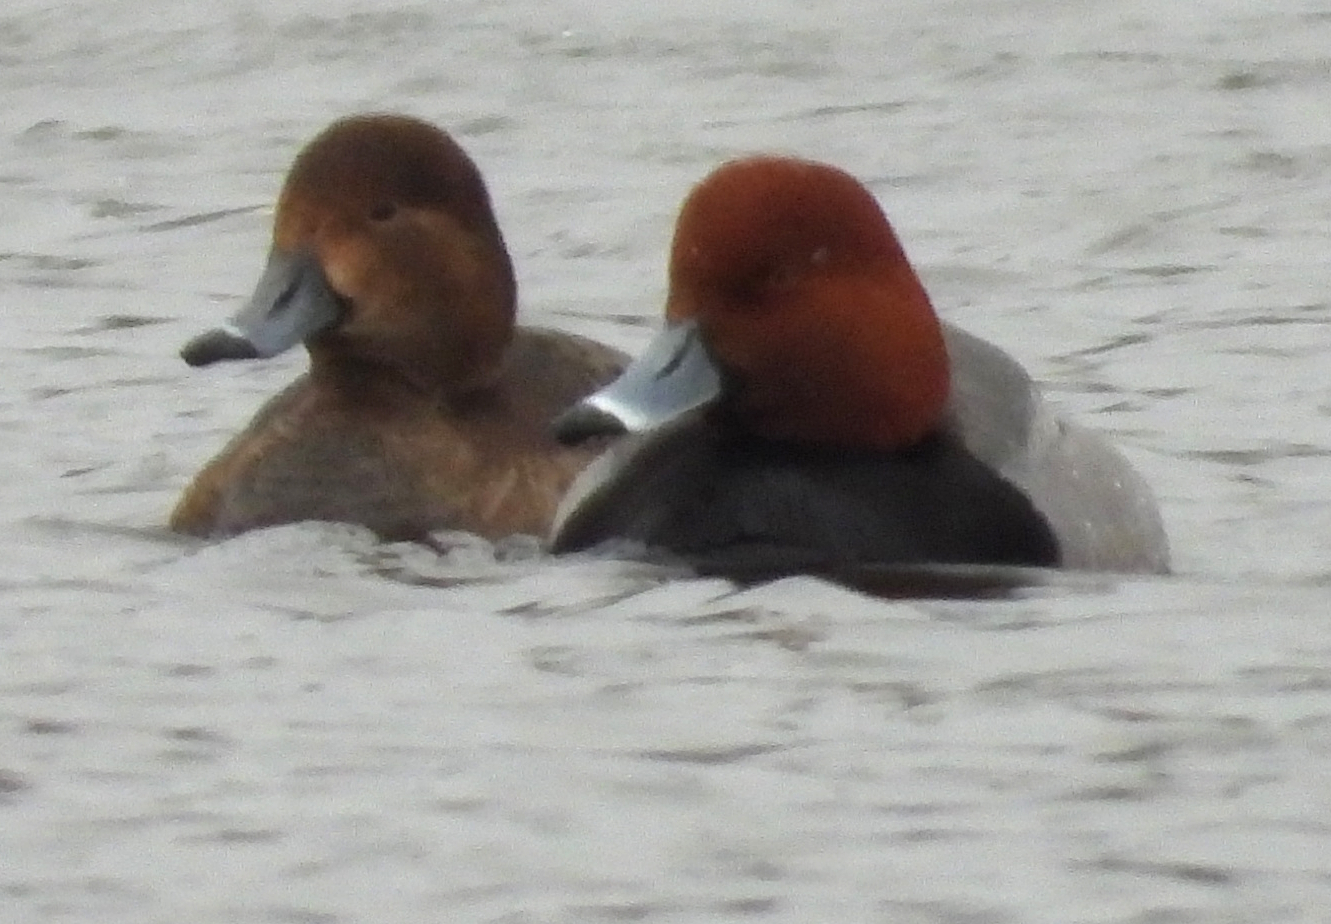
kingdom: Animalia
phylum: Chordata
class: Aves
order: Anseriformes
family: Anatidae
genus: Aythya
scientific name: Aythya americana
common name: Redhead
